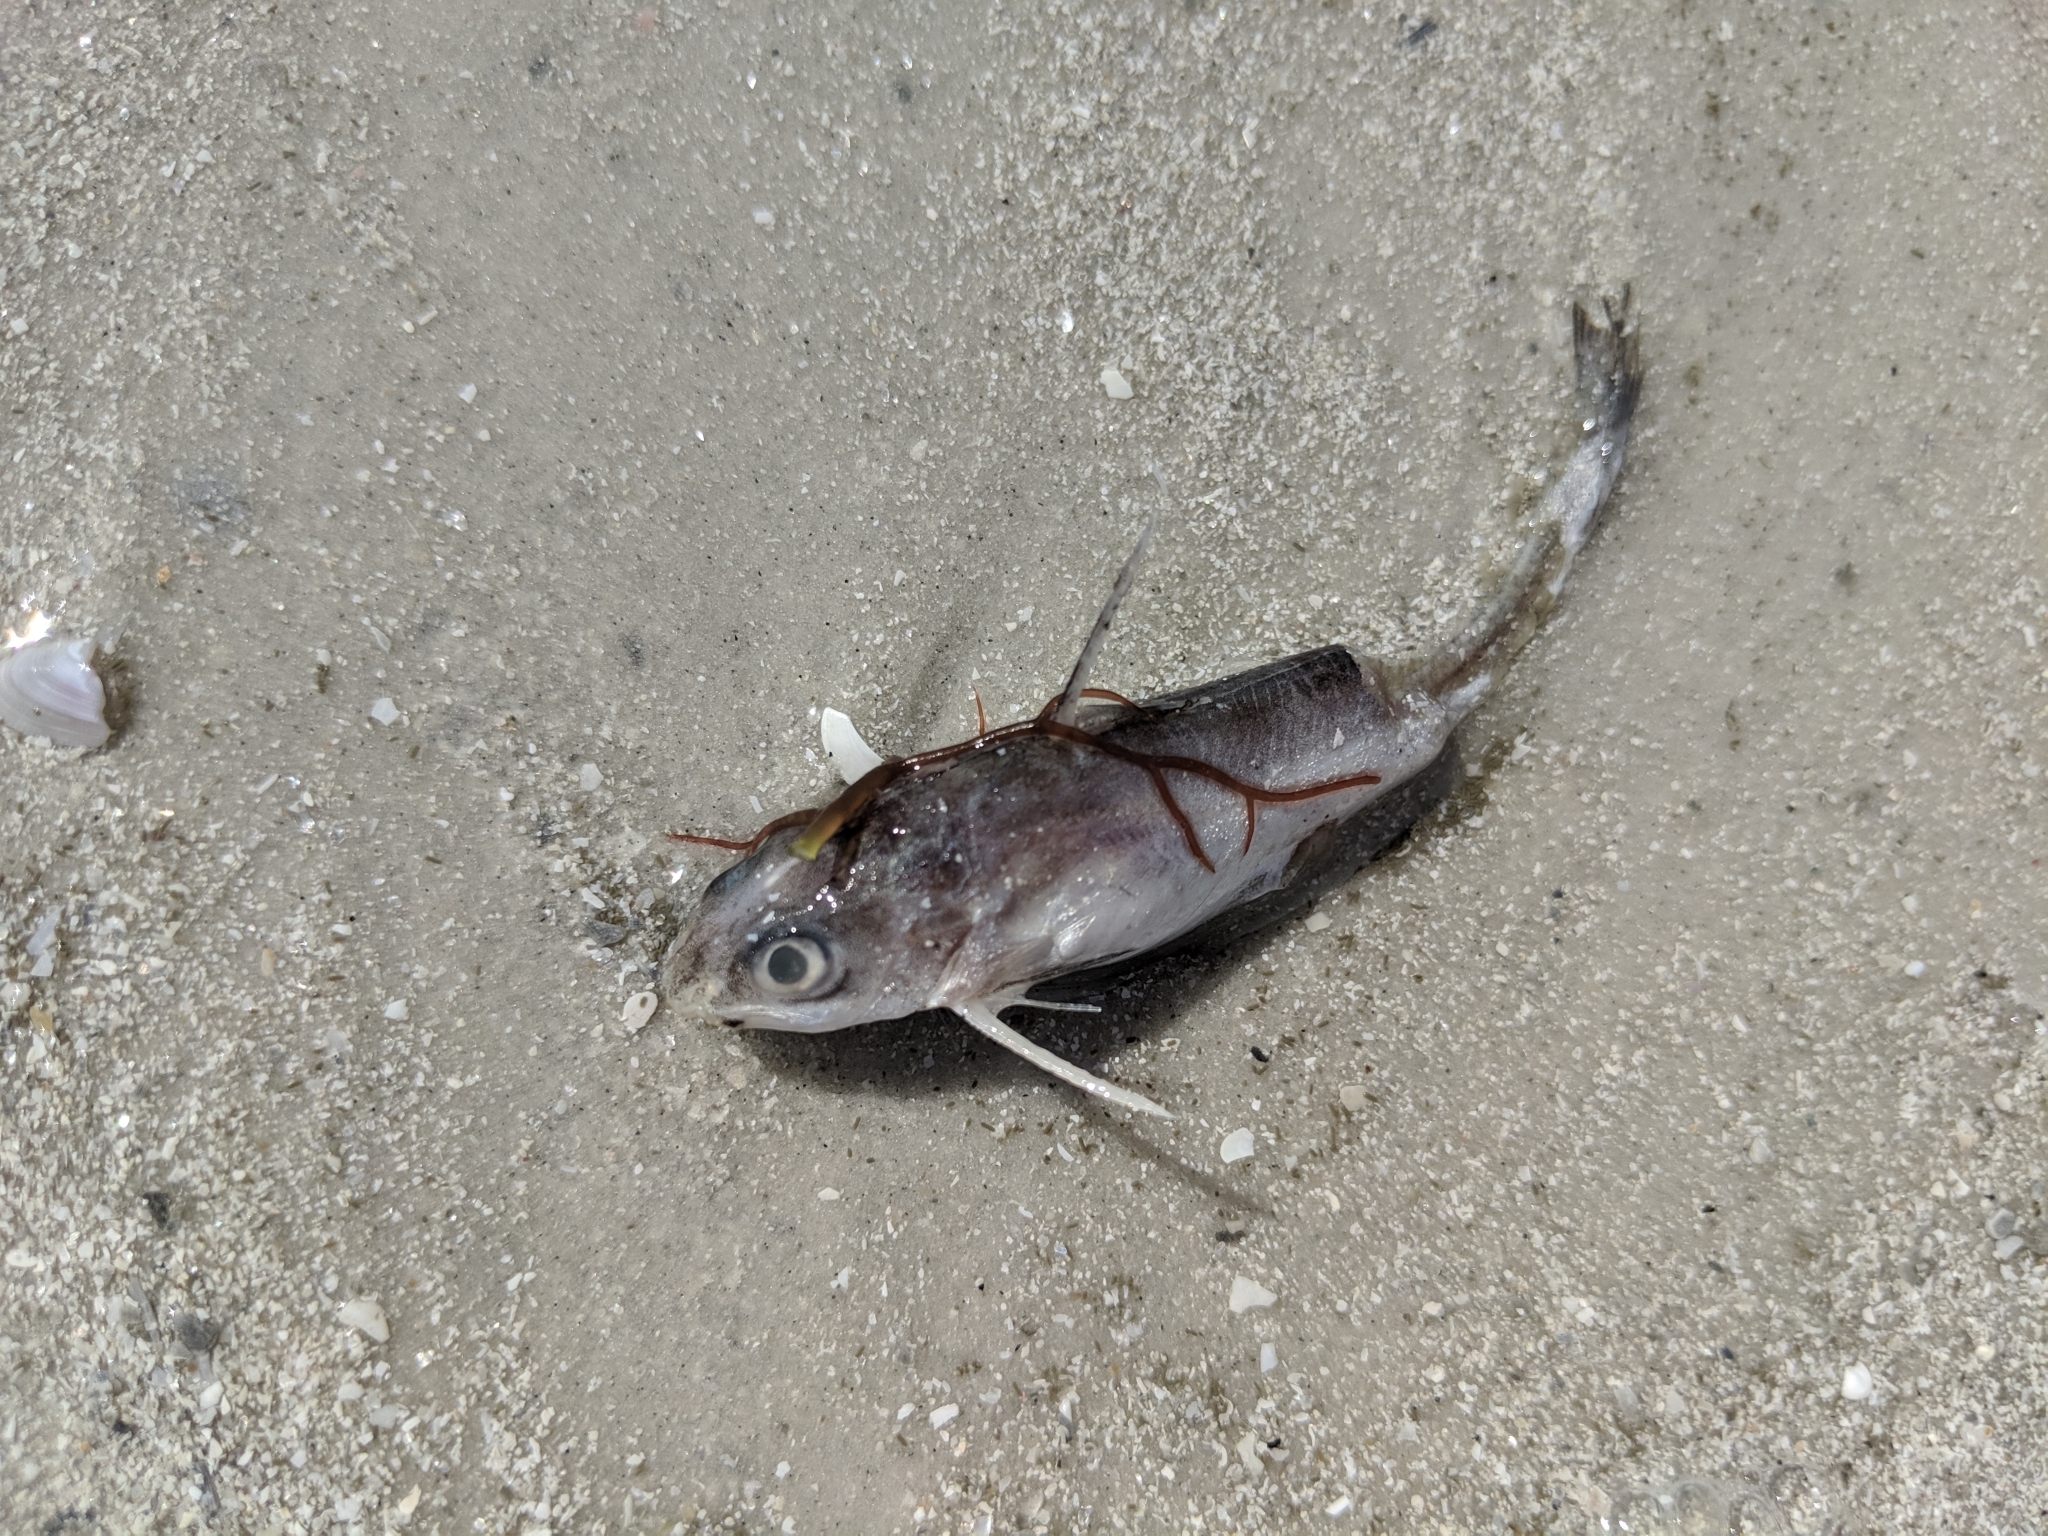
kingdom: Animalia
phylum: Chordata
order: Siluriformes
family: Ariidae
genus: Ariopsis
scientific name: Ariopsis felis
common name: Hardhead catfish
